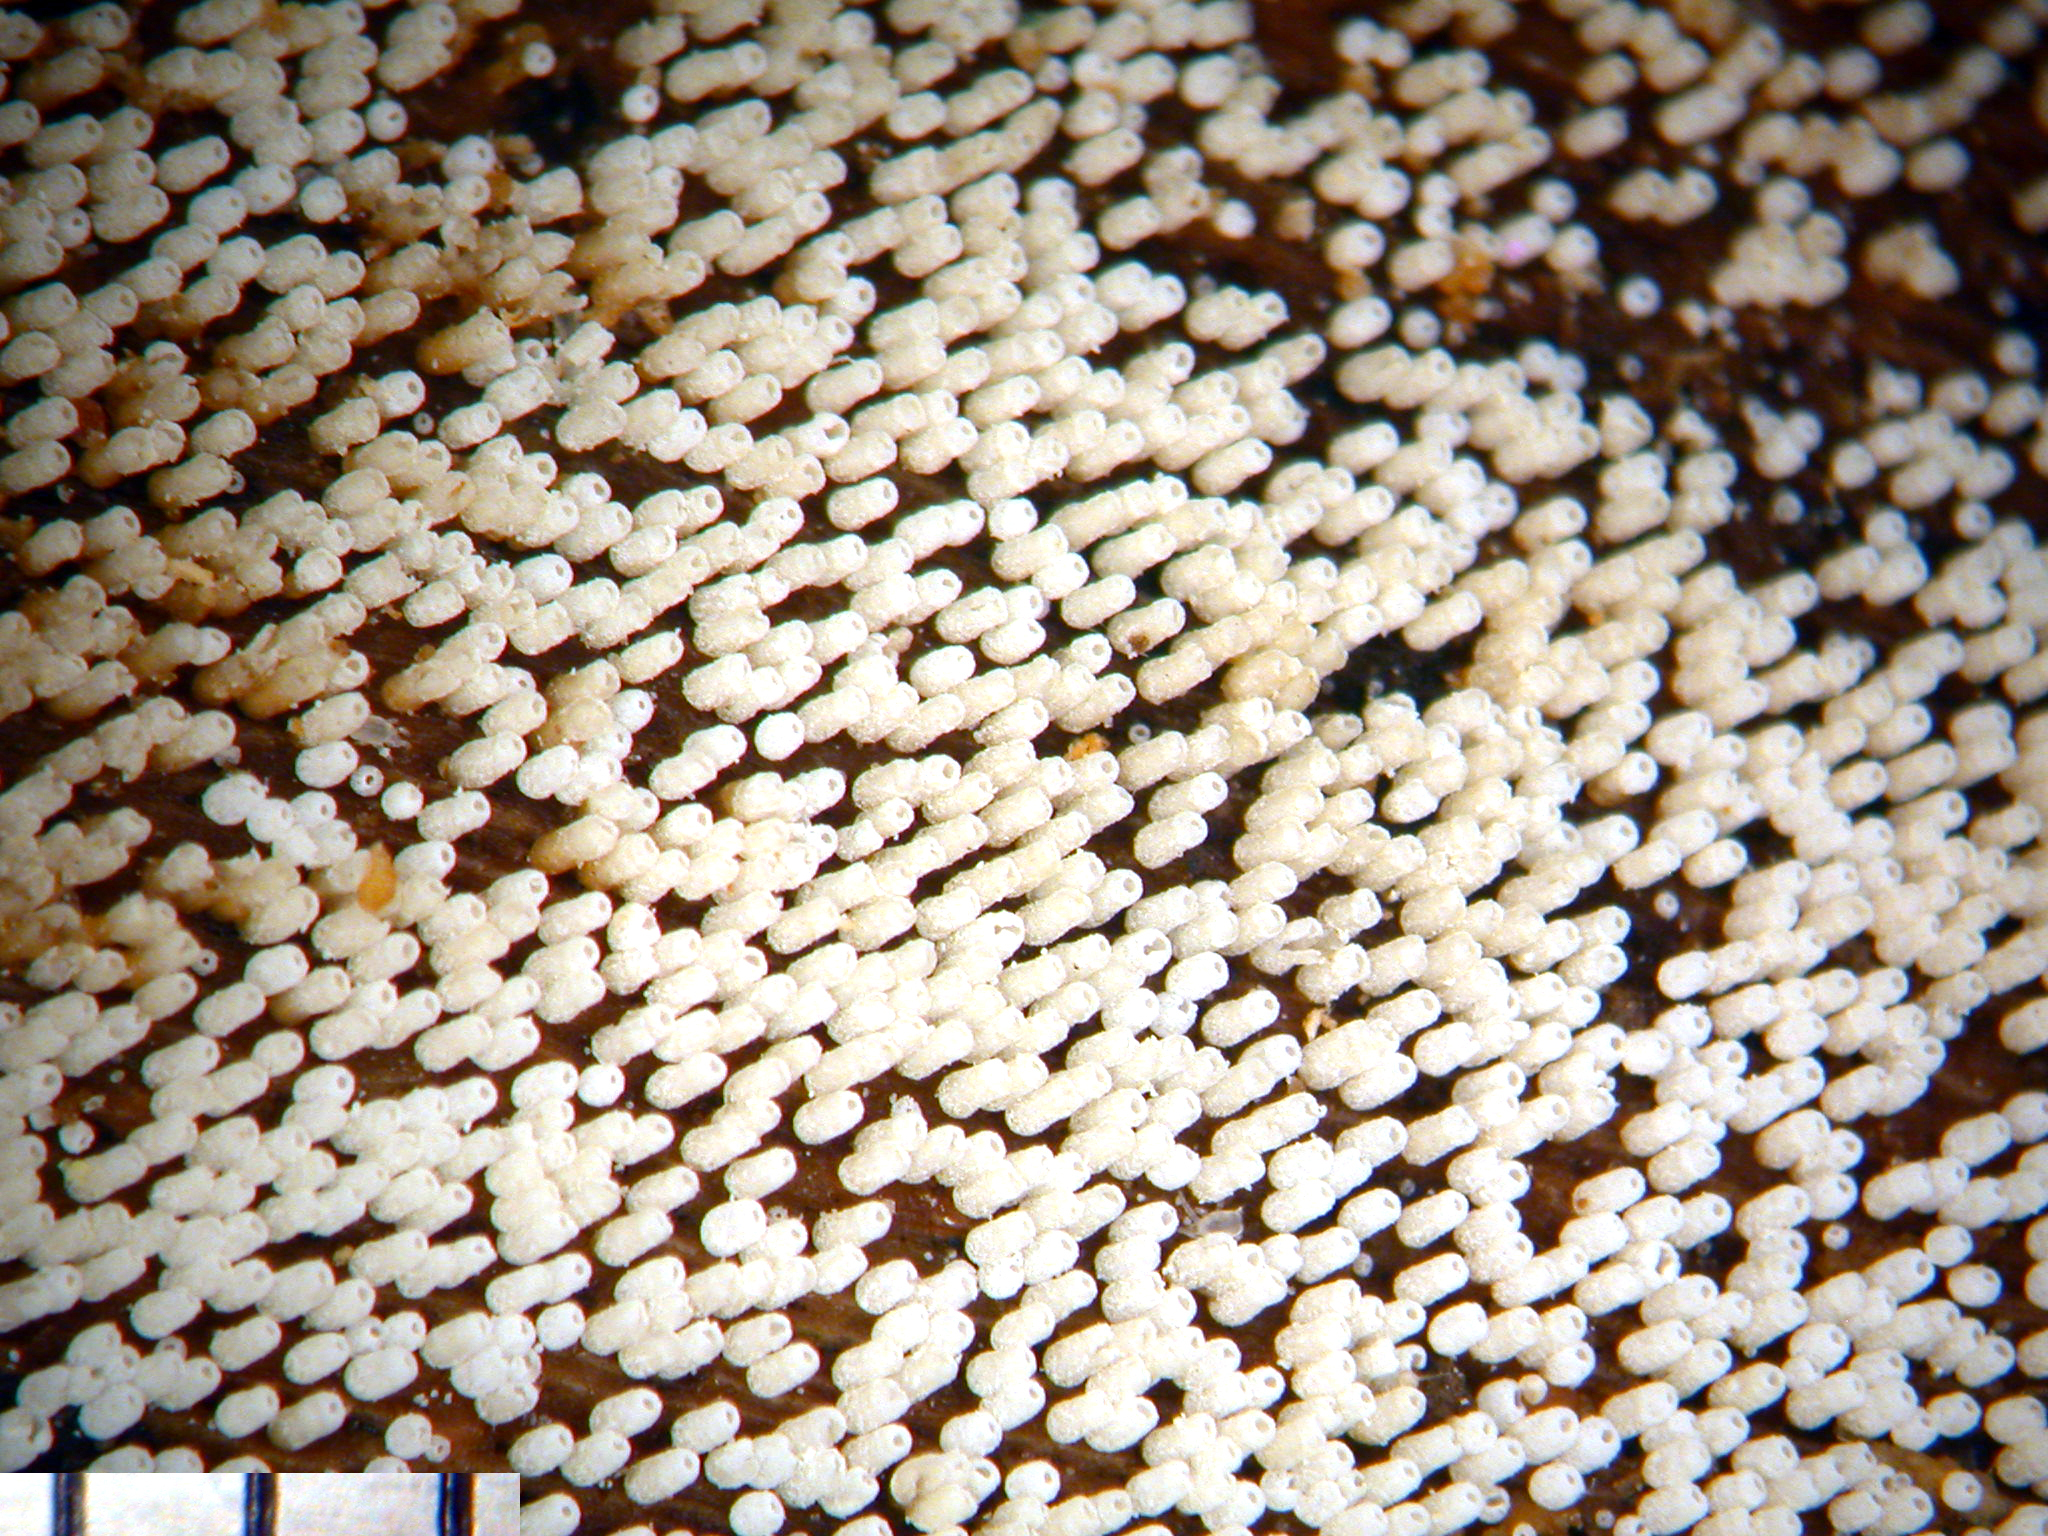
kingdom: Fungi
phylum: Basidiomycota
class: Agaricomycetes
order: Agaricales
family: Marasmiaceae
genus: Henningsomyces
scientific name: Henningsomyces candidus
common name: White tubelet
